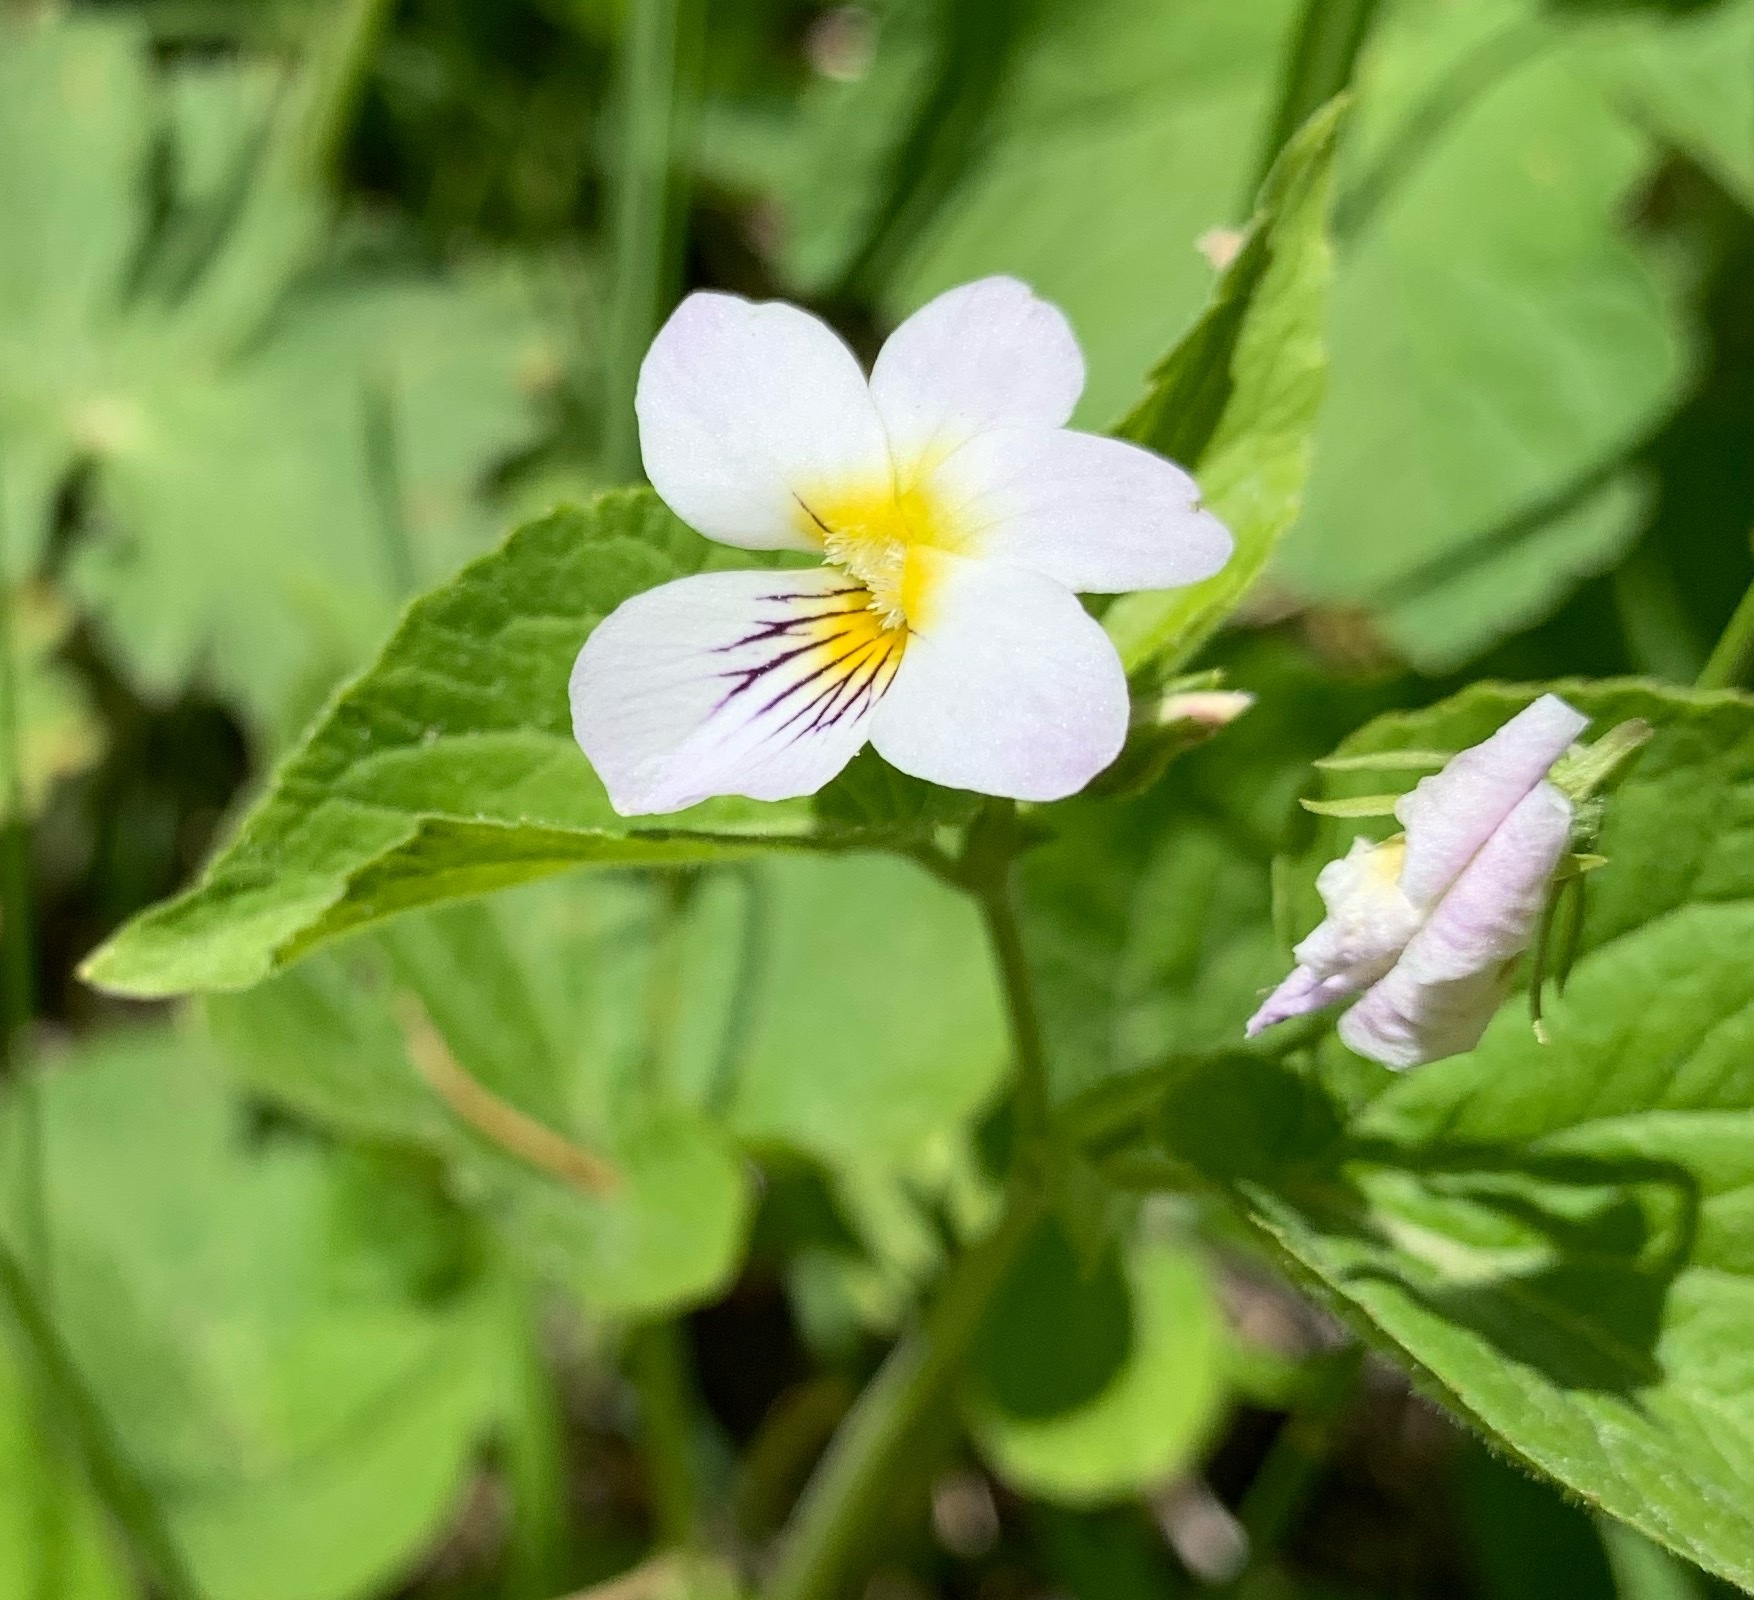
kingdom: Plantae
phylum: Tracheophyta
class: Magnoliopsida
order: Malpighiales
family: Violaceae
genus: Viola
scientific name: Viola canadensis
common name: Canada violet
